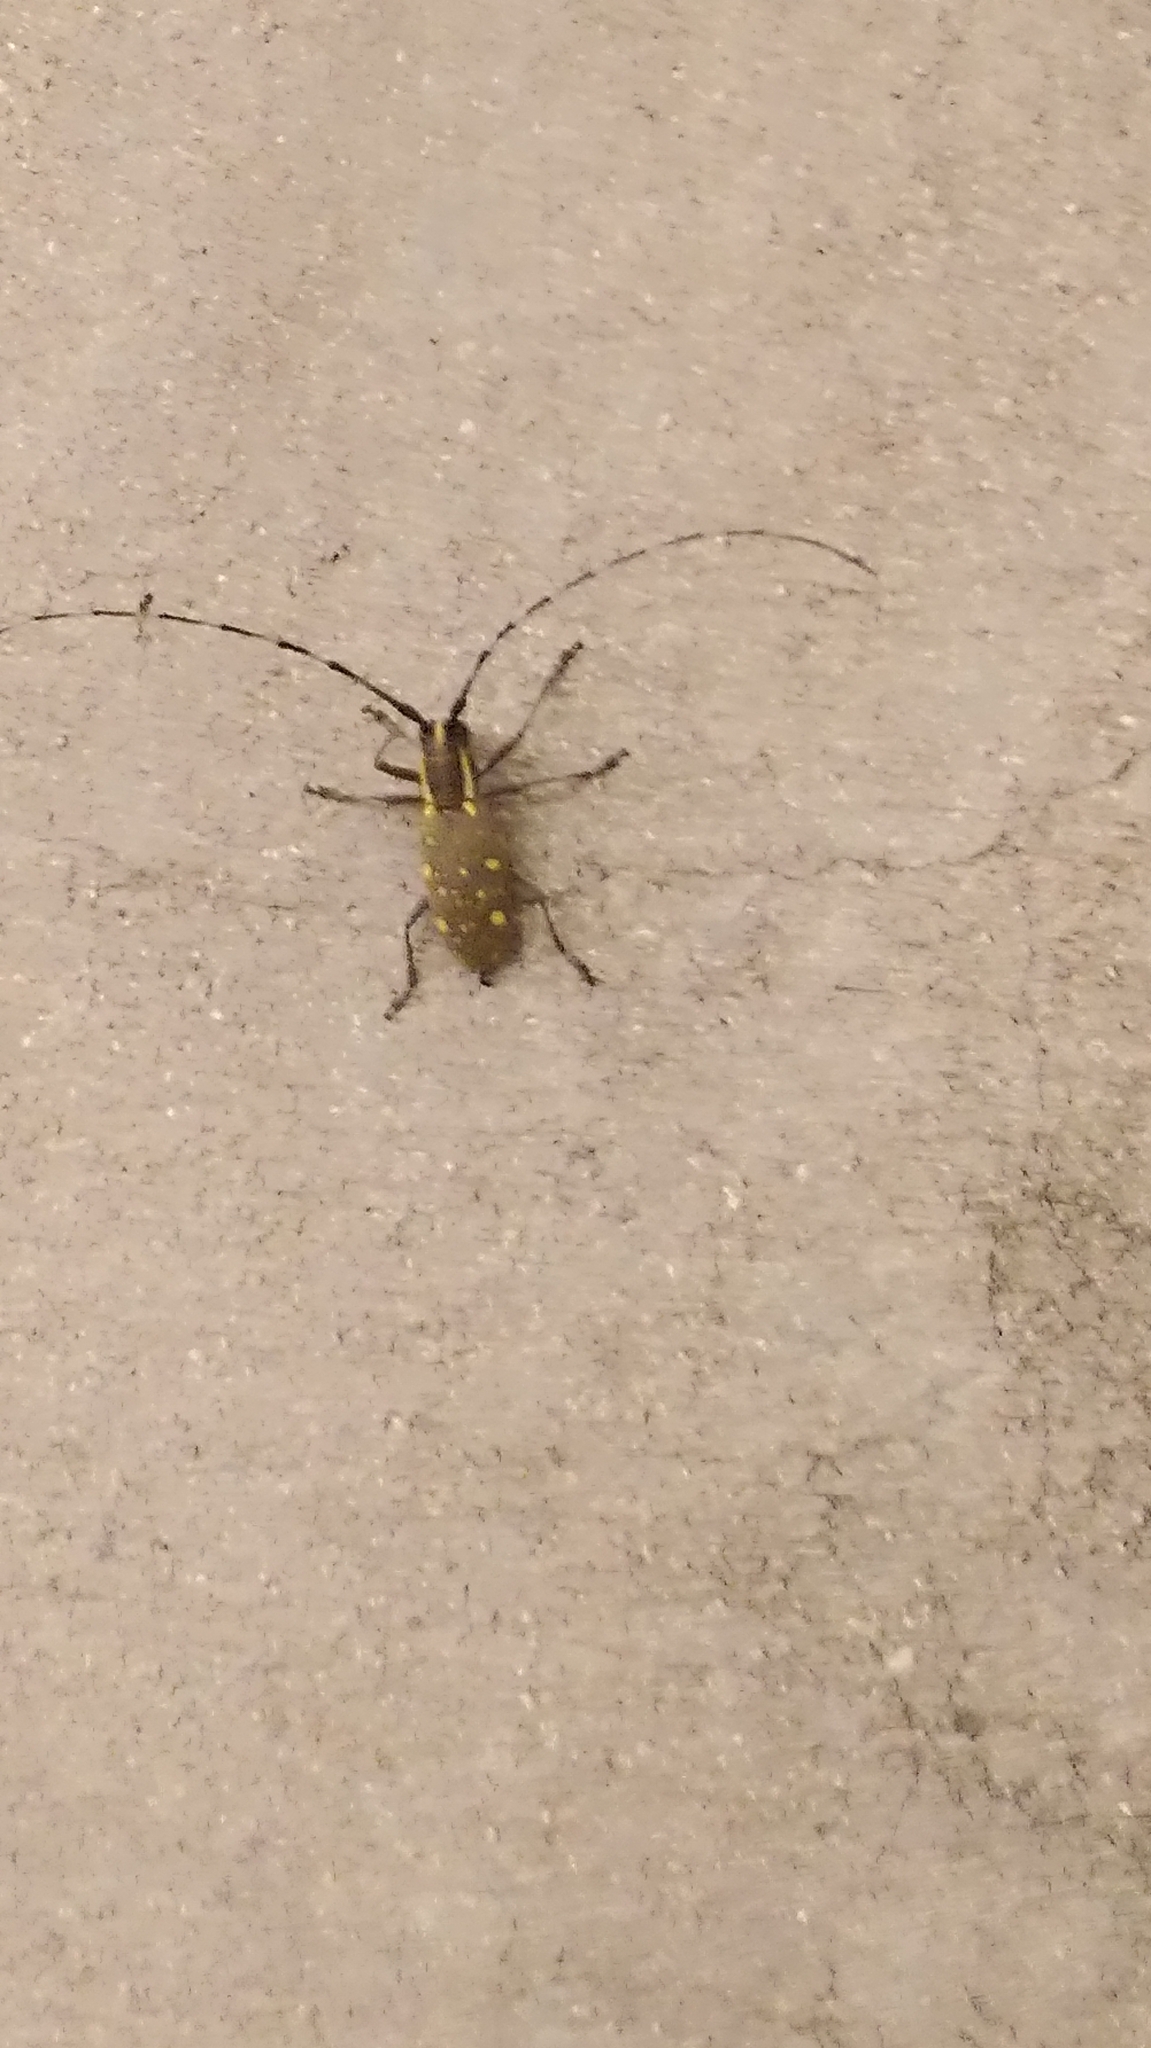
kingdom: Animalia
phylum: Arthropoda
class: Insecta
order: Coleoptera
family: Cerambycidae
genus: Psacothea
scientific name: Psacothea hilaris
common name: Yellow-spotted longicorn beetle
